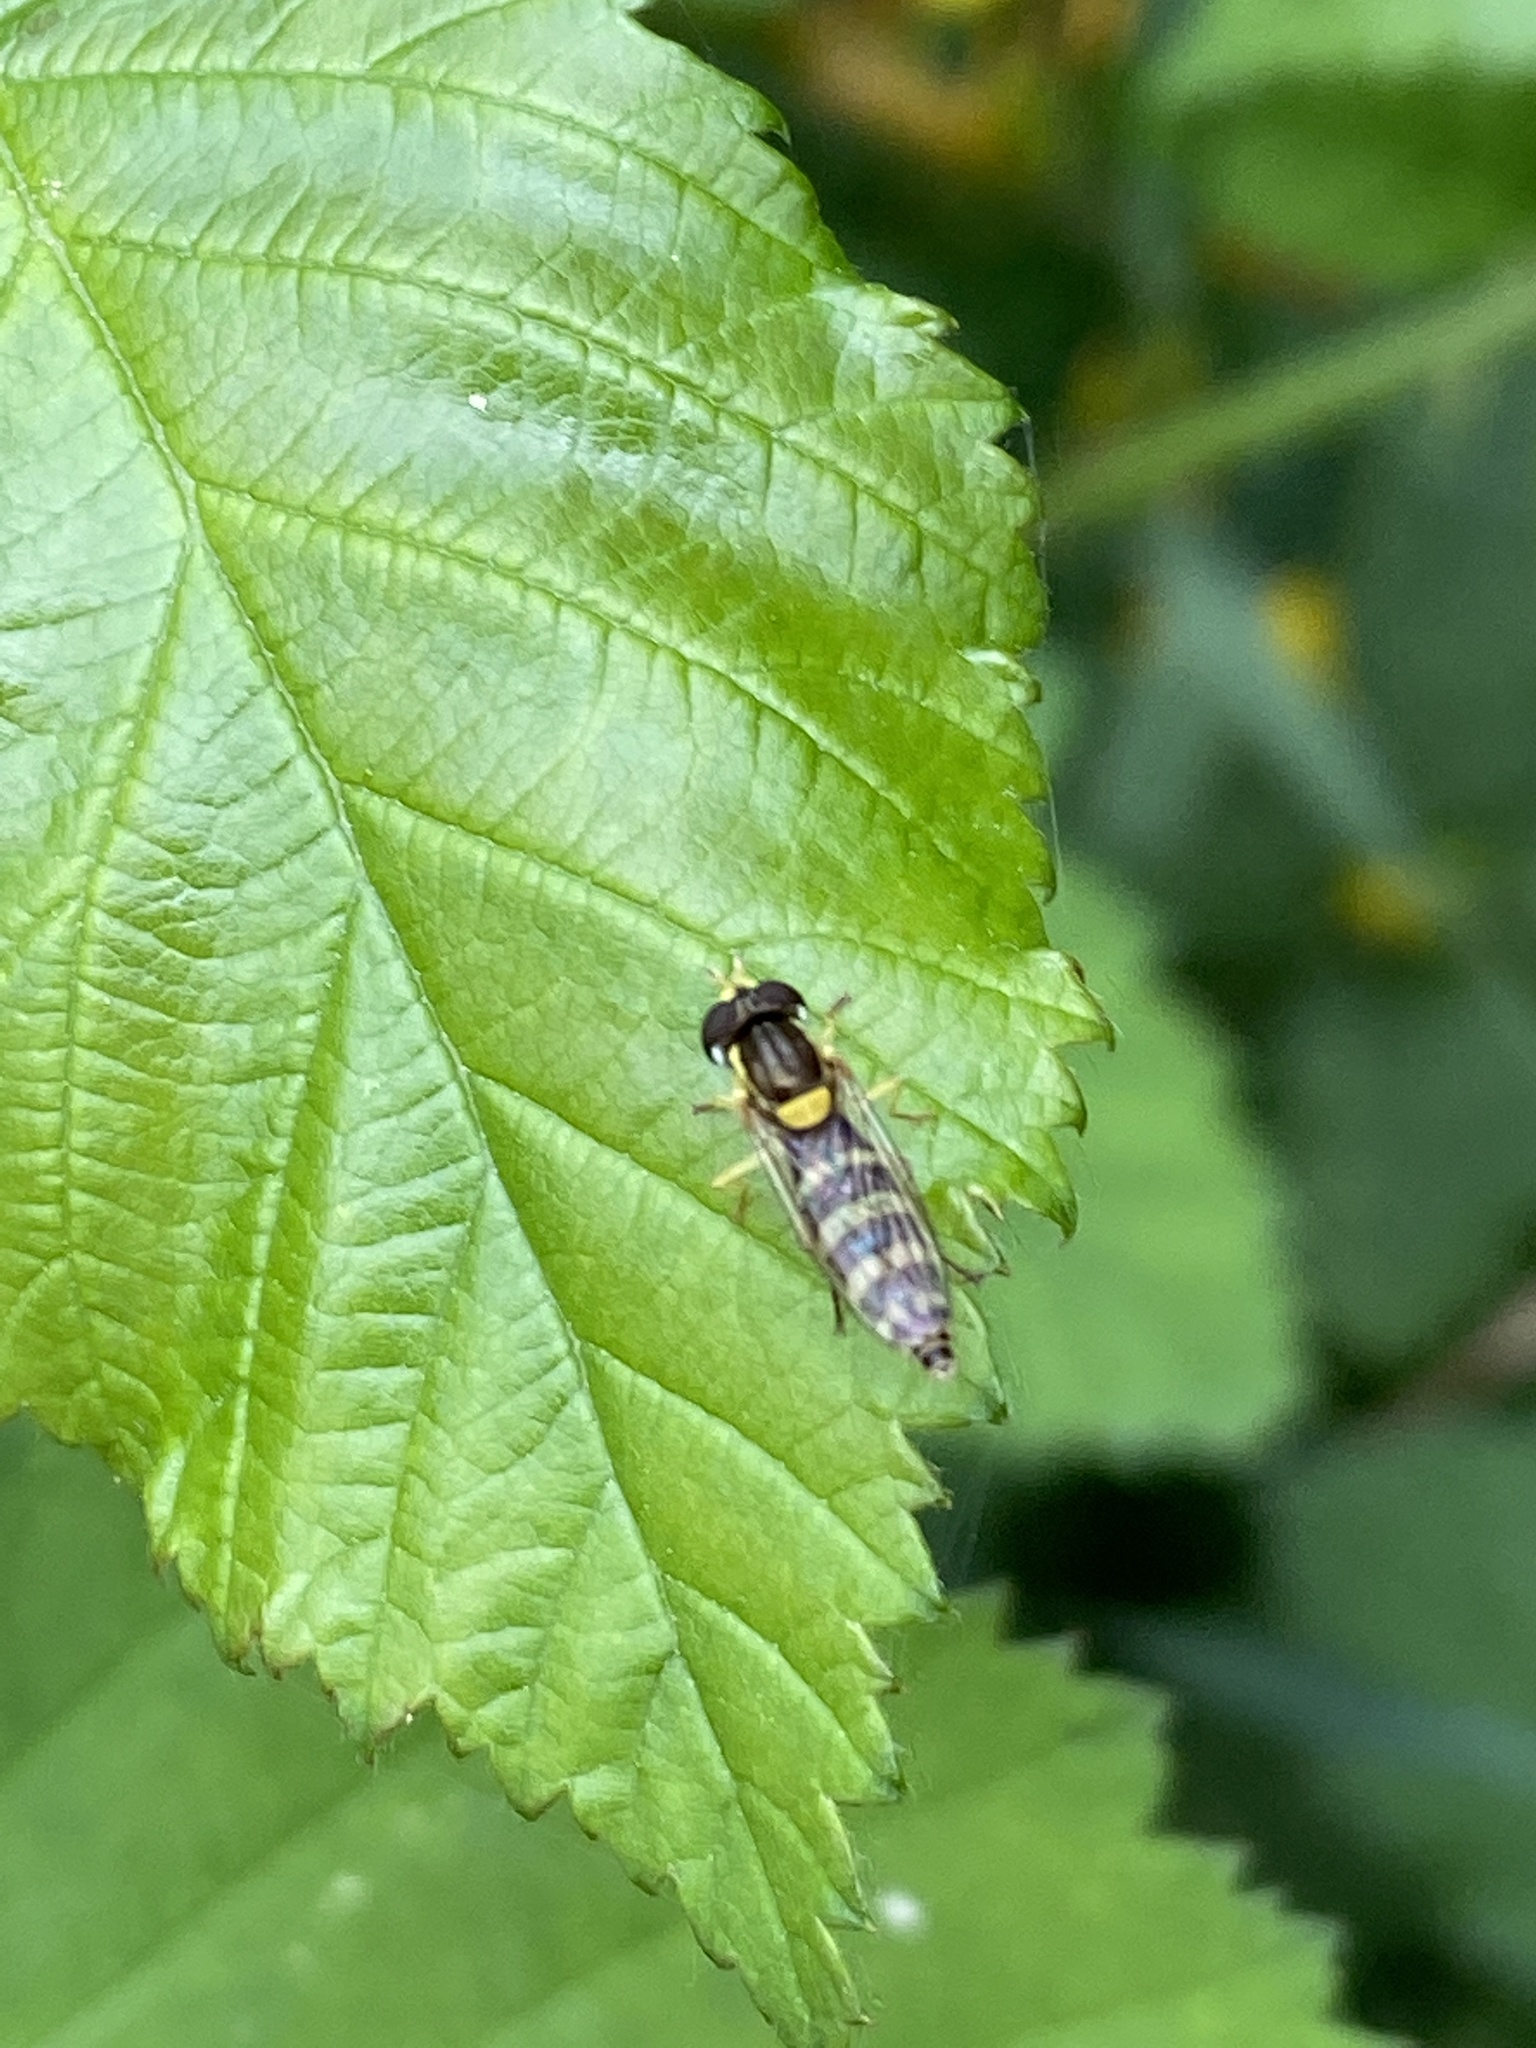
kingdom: Animalia
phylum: Arthropoda
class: Insecta
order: Diptera
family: Syrphidae
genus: Sphaerophoria
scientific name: Sphaerophoria
